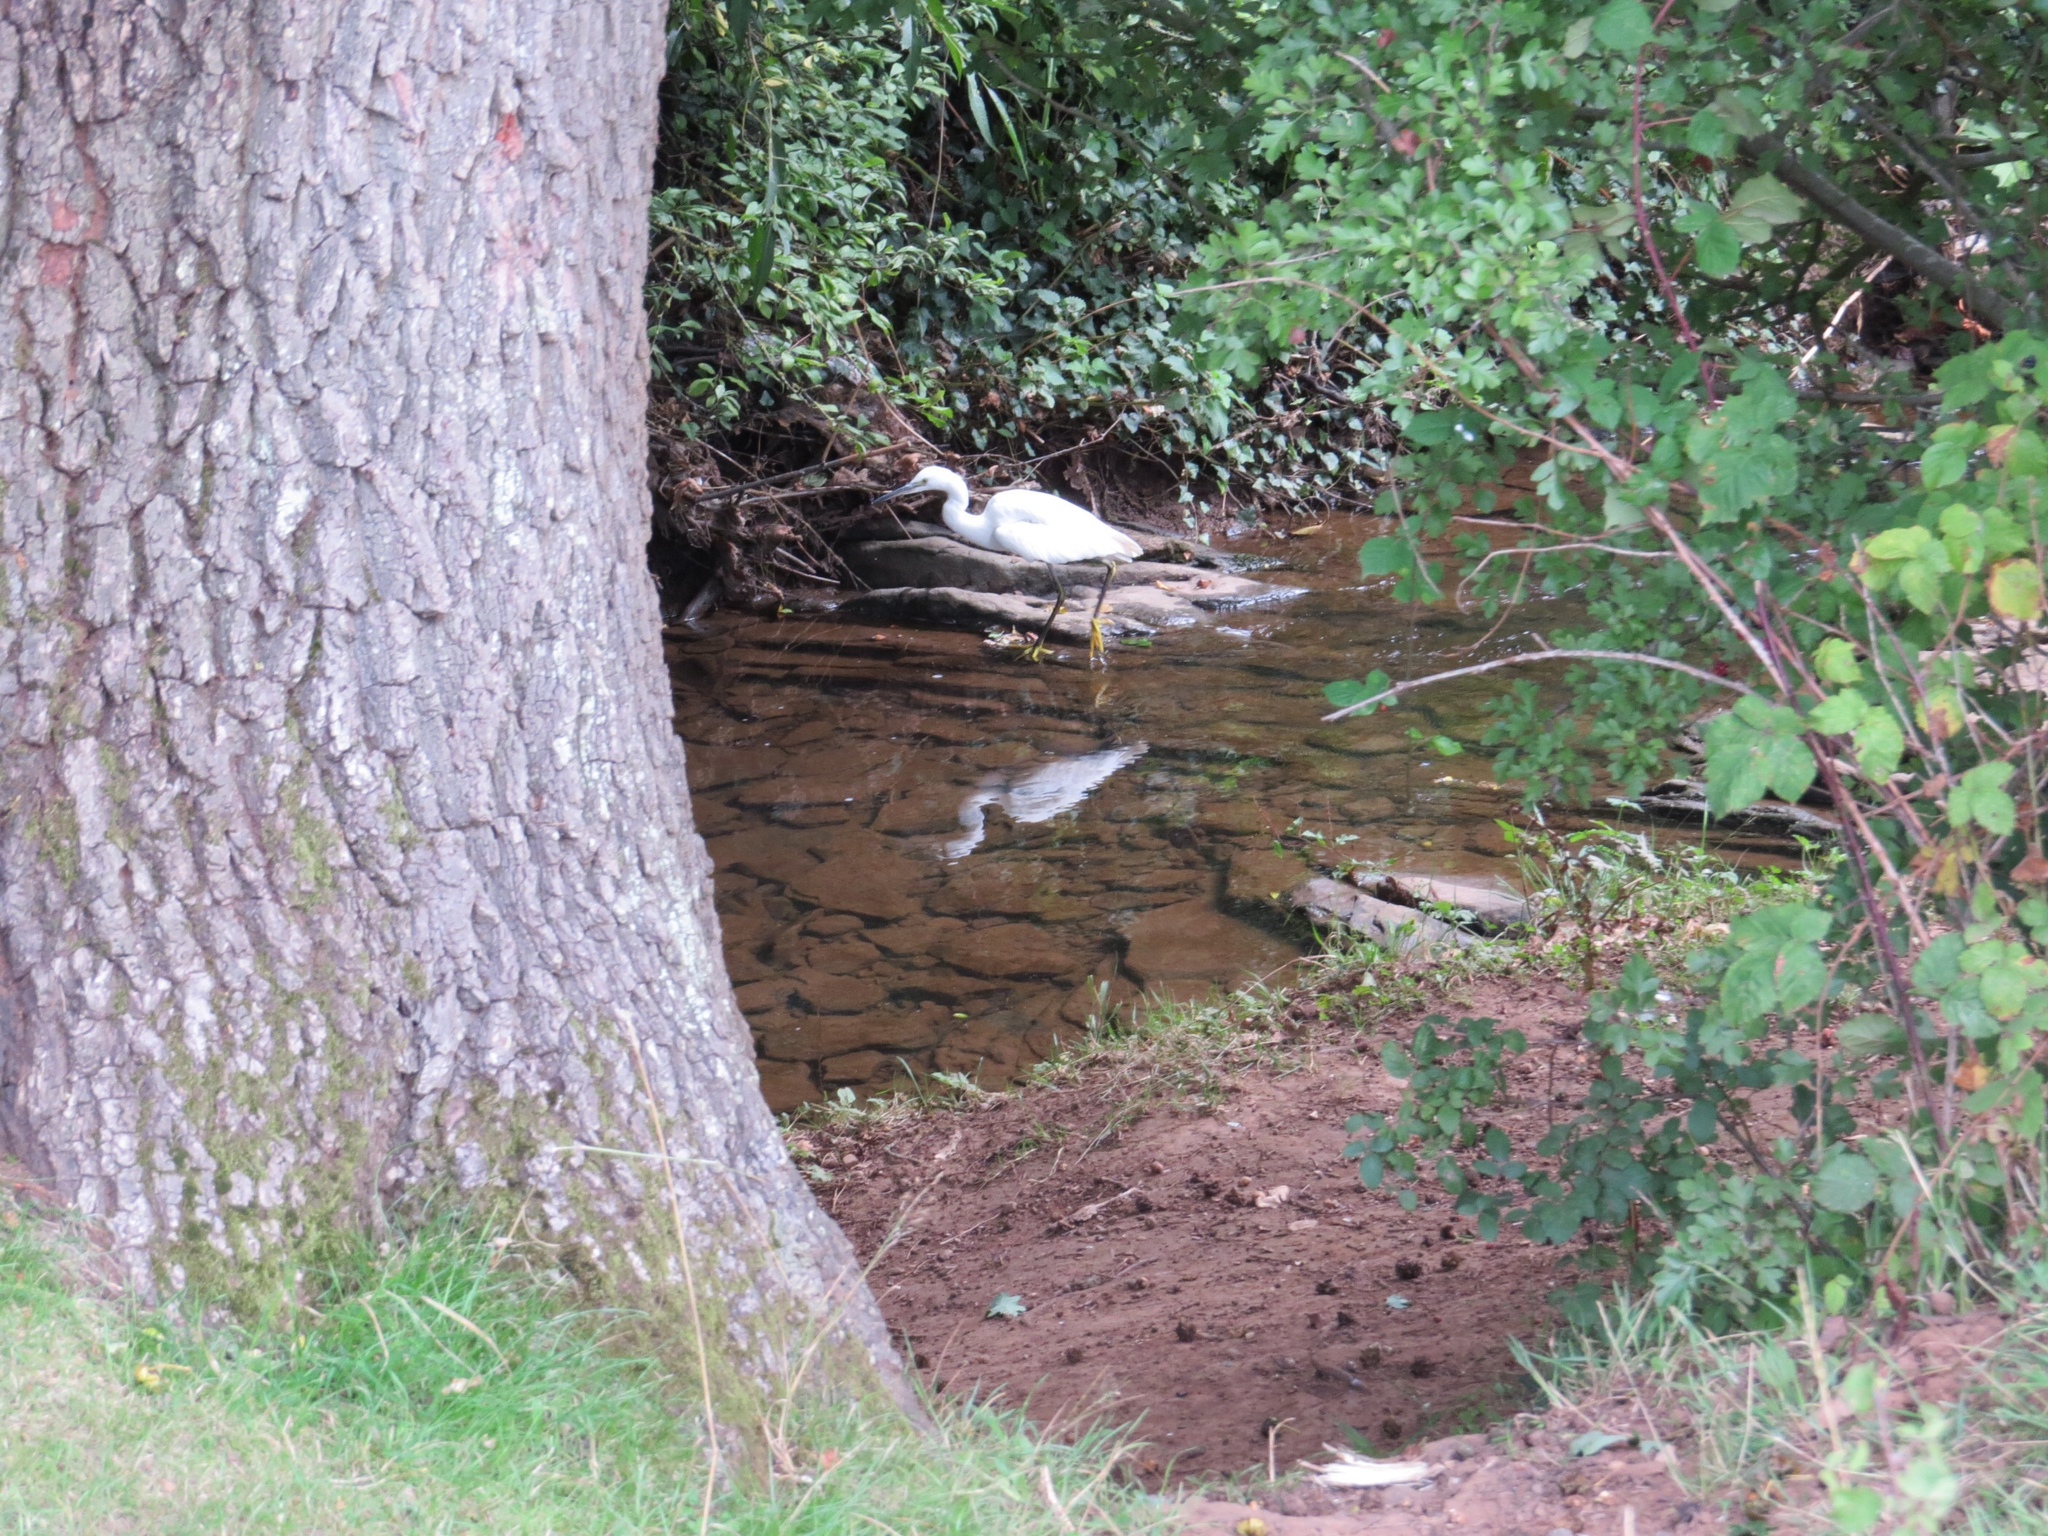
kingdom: Animalia
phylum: Chordata
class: Aves
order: Pelecaniformes
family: Ardeidae
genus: Egretta
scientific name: Egretta garzetta
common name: Little egret
